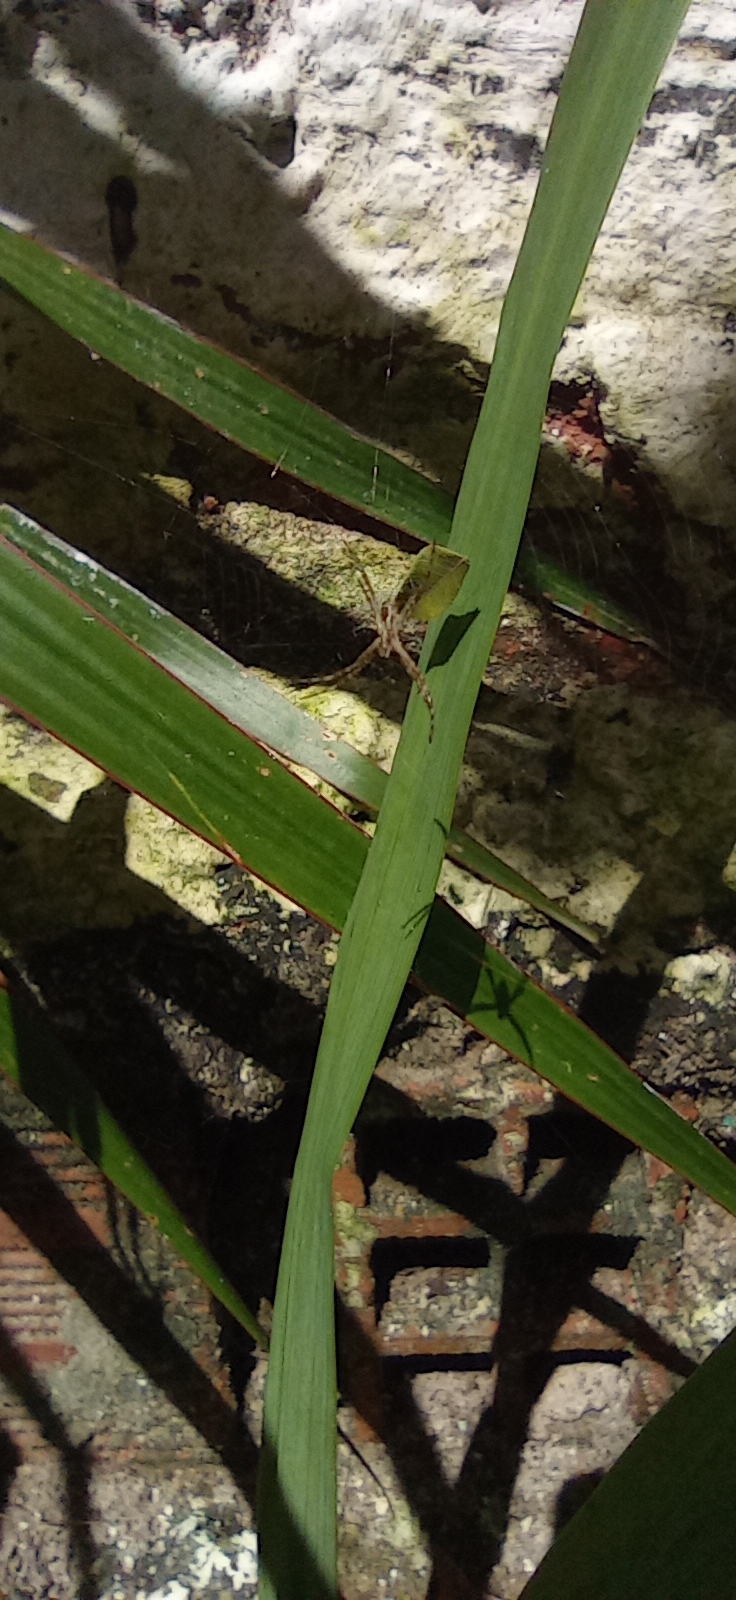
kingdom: Animalia
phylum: Arthropoda
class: Arachnida
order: Araneae
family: Araneidae
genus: Argiope
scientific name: Argiope argentata
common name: Orb weavers
